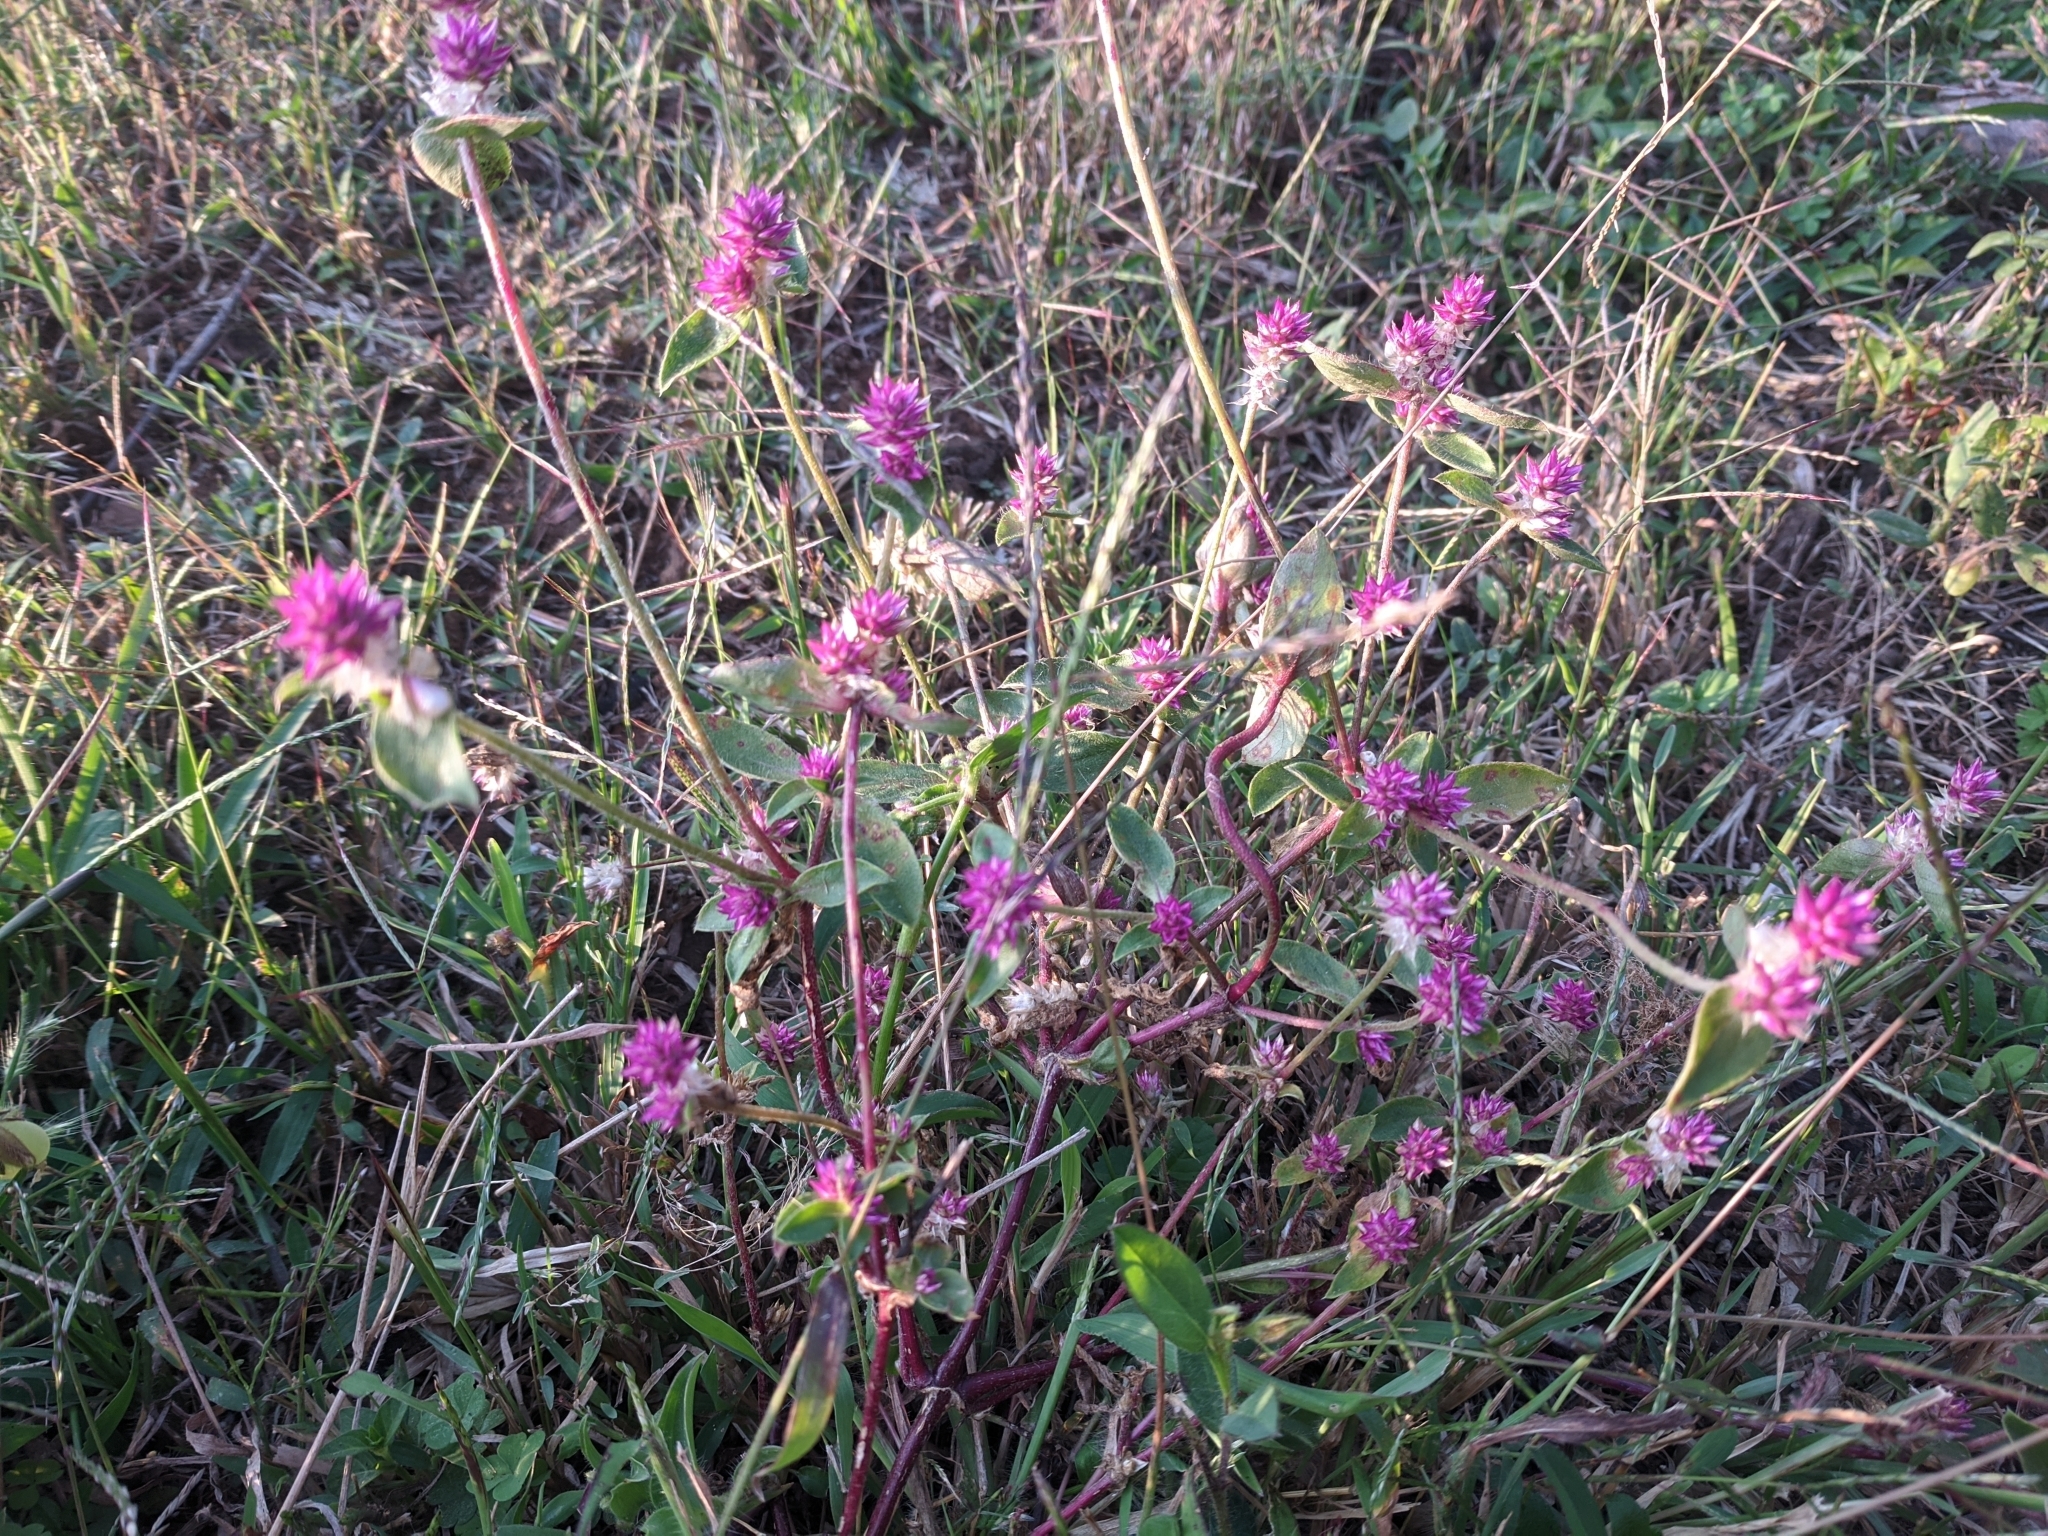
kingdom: Plantae
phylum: Tracheophyta
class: Magnoliopsida
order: Caryophyllales
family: Amaranthaceae
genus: Gomphrena
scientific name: Gomphrena serrata
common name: Arrasa con todo
